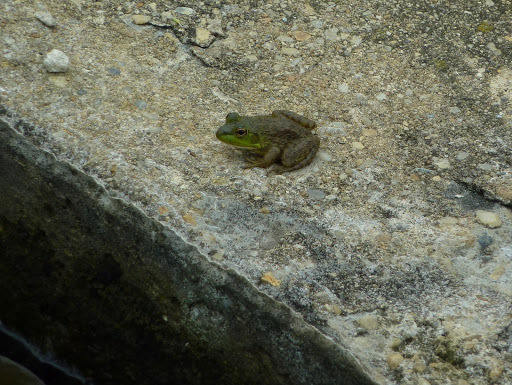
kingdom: Animalia
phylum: Chordata
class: Amphibia
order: Anura
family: Ranidae
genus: Lithobates
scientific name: Lithobates catesbeianus
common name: American bullfrog
